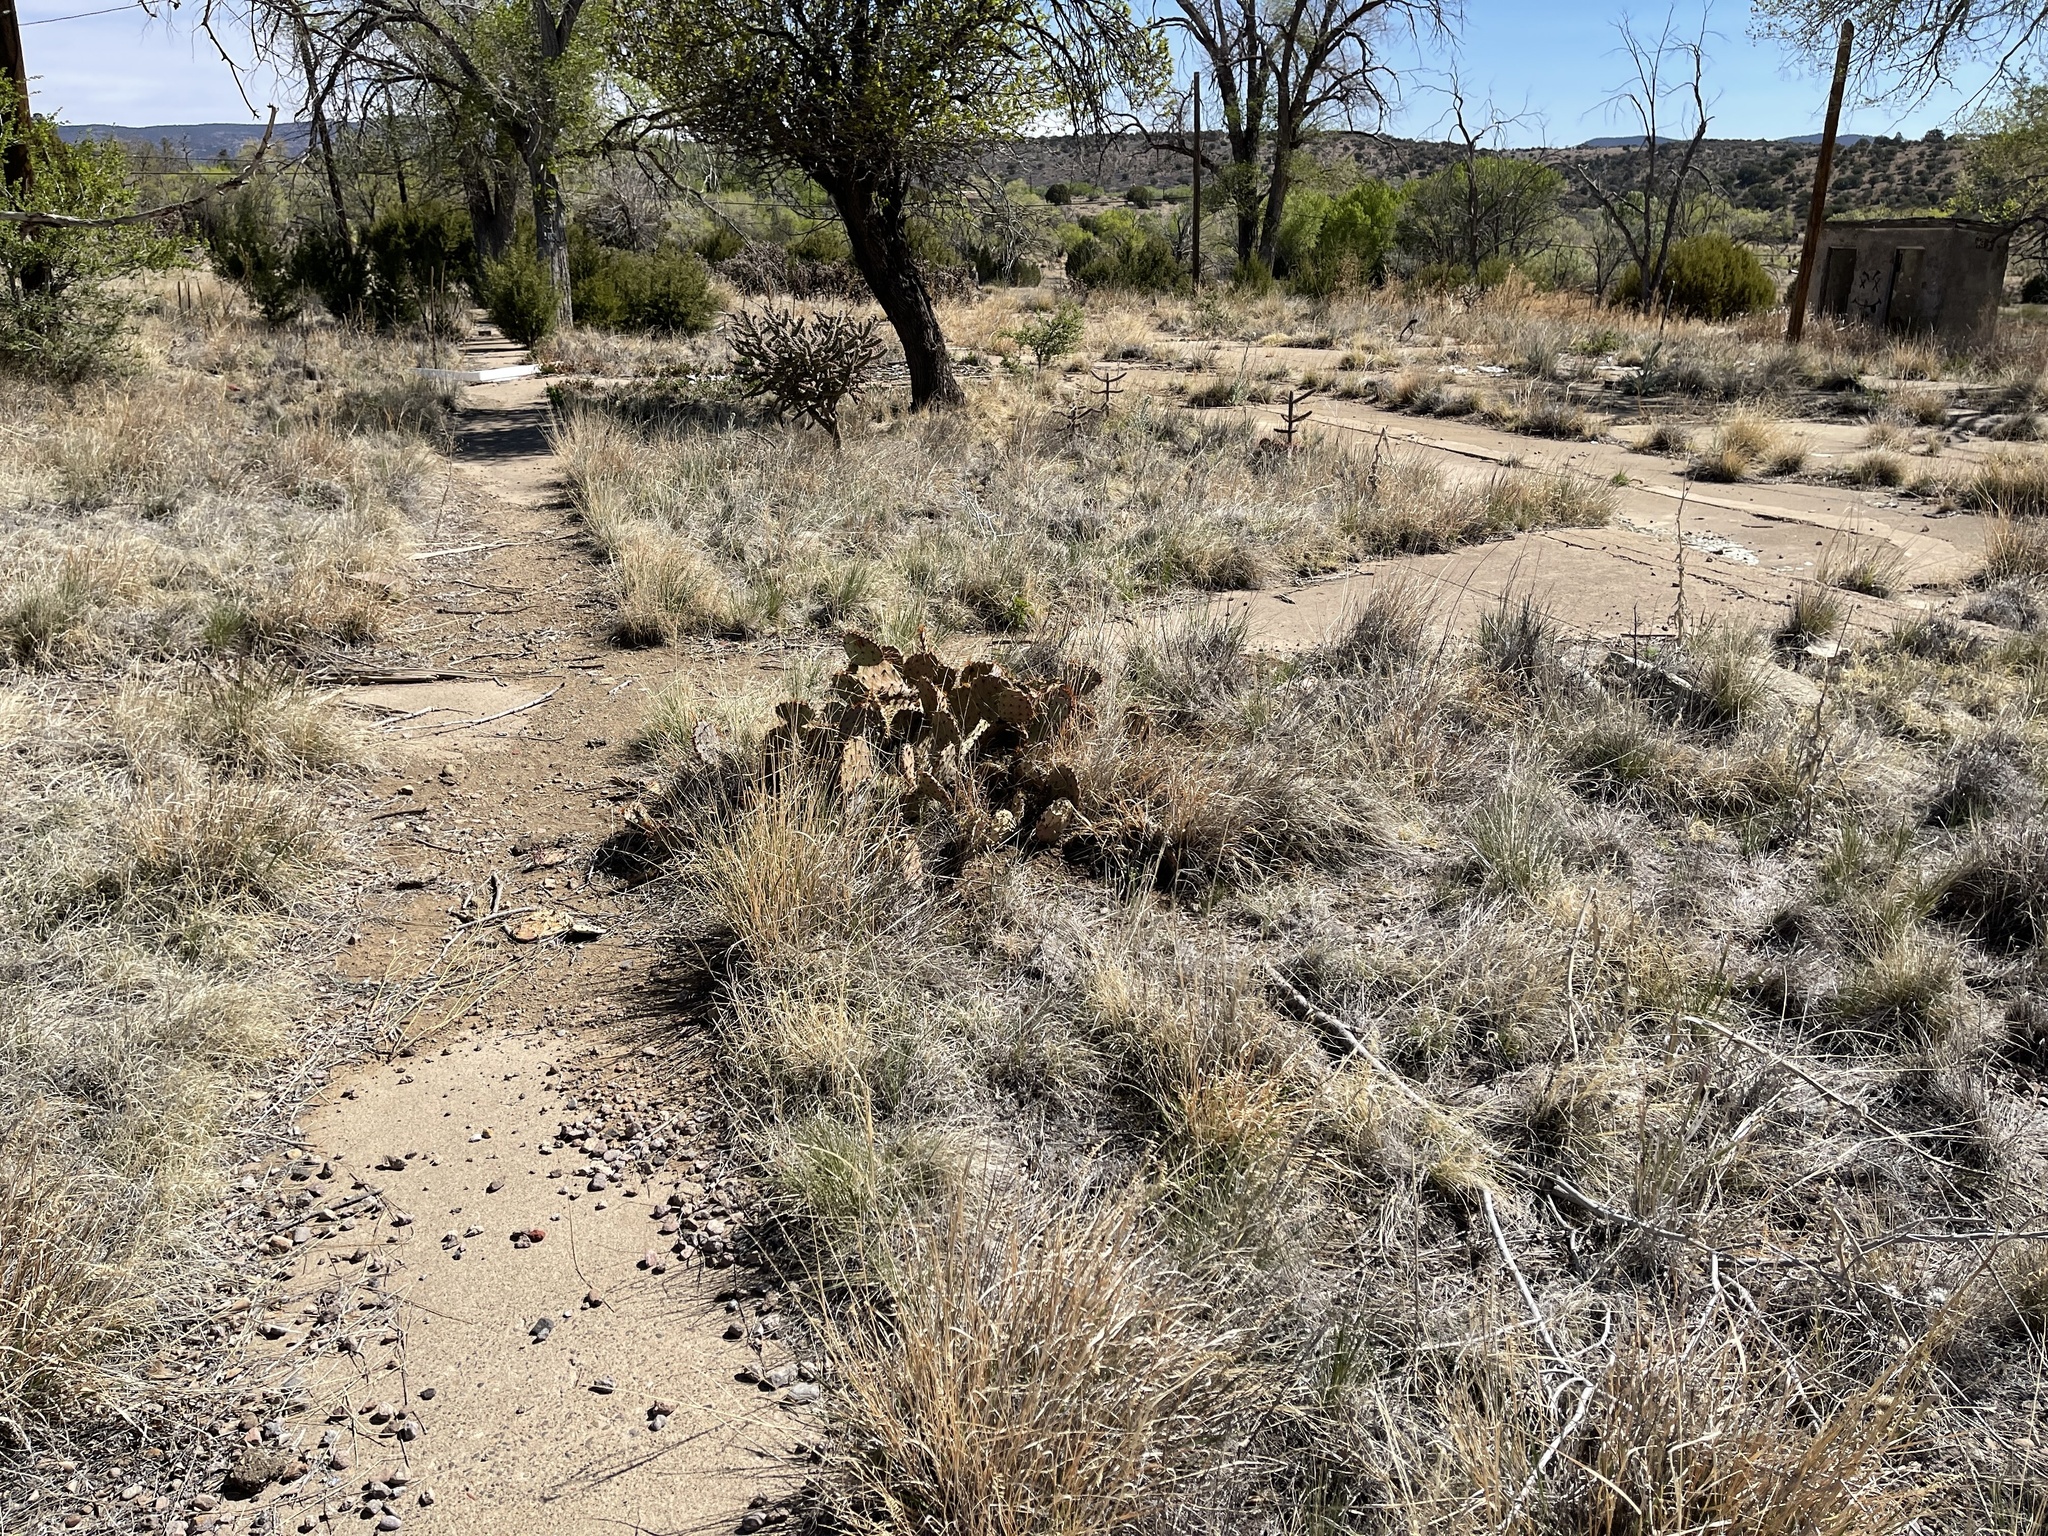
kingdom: Plantae
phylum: Tracheophyta
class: Magnoliopsida
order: Caryophyllales
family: Cactaceae
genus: Opuntia
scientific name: Opuntia phaeacantha
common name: New mexico prickly-pear
